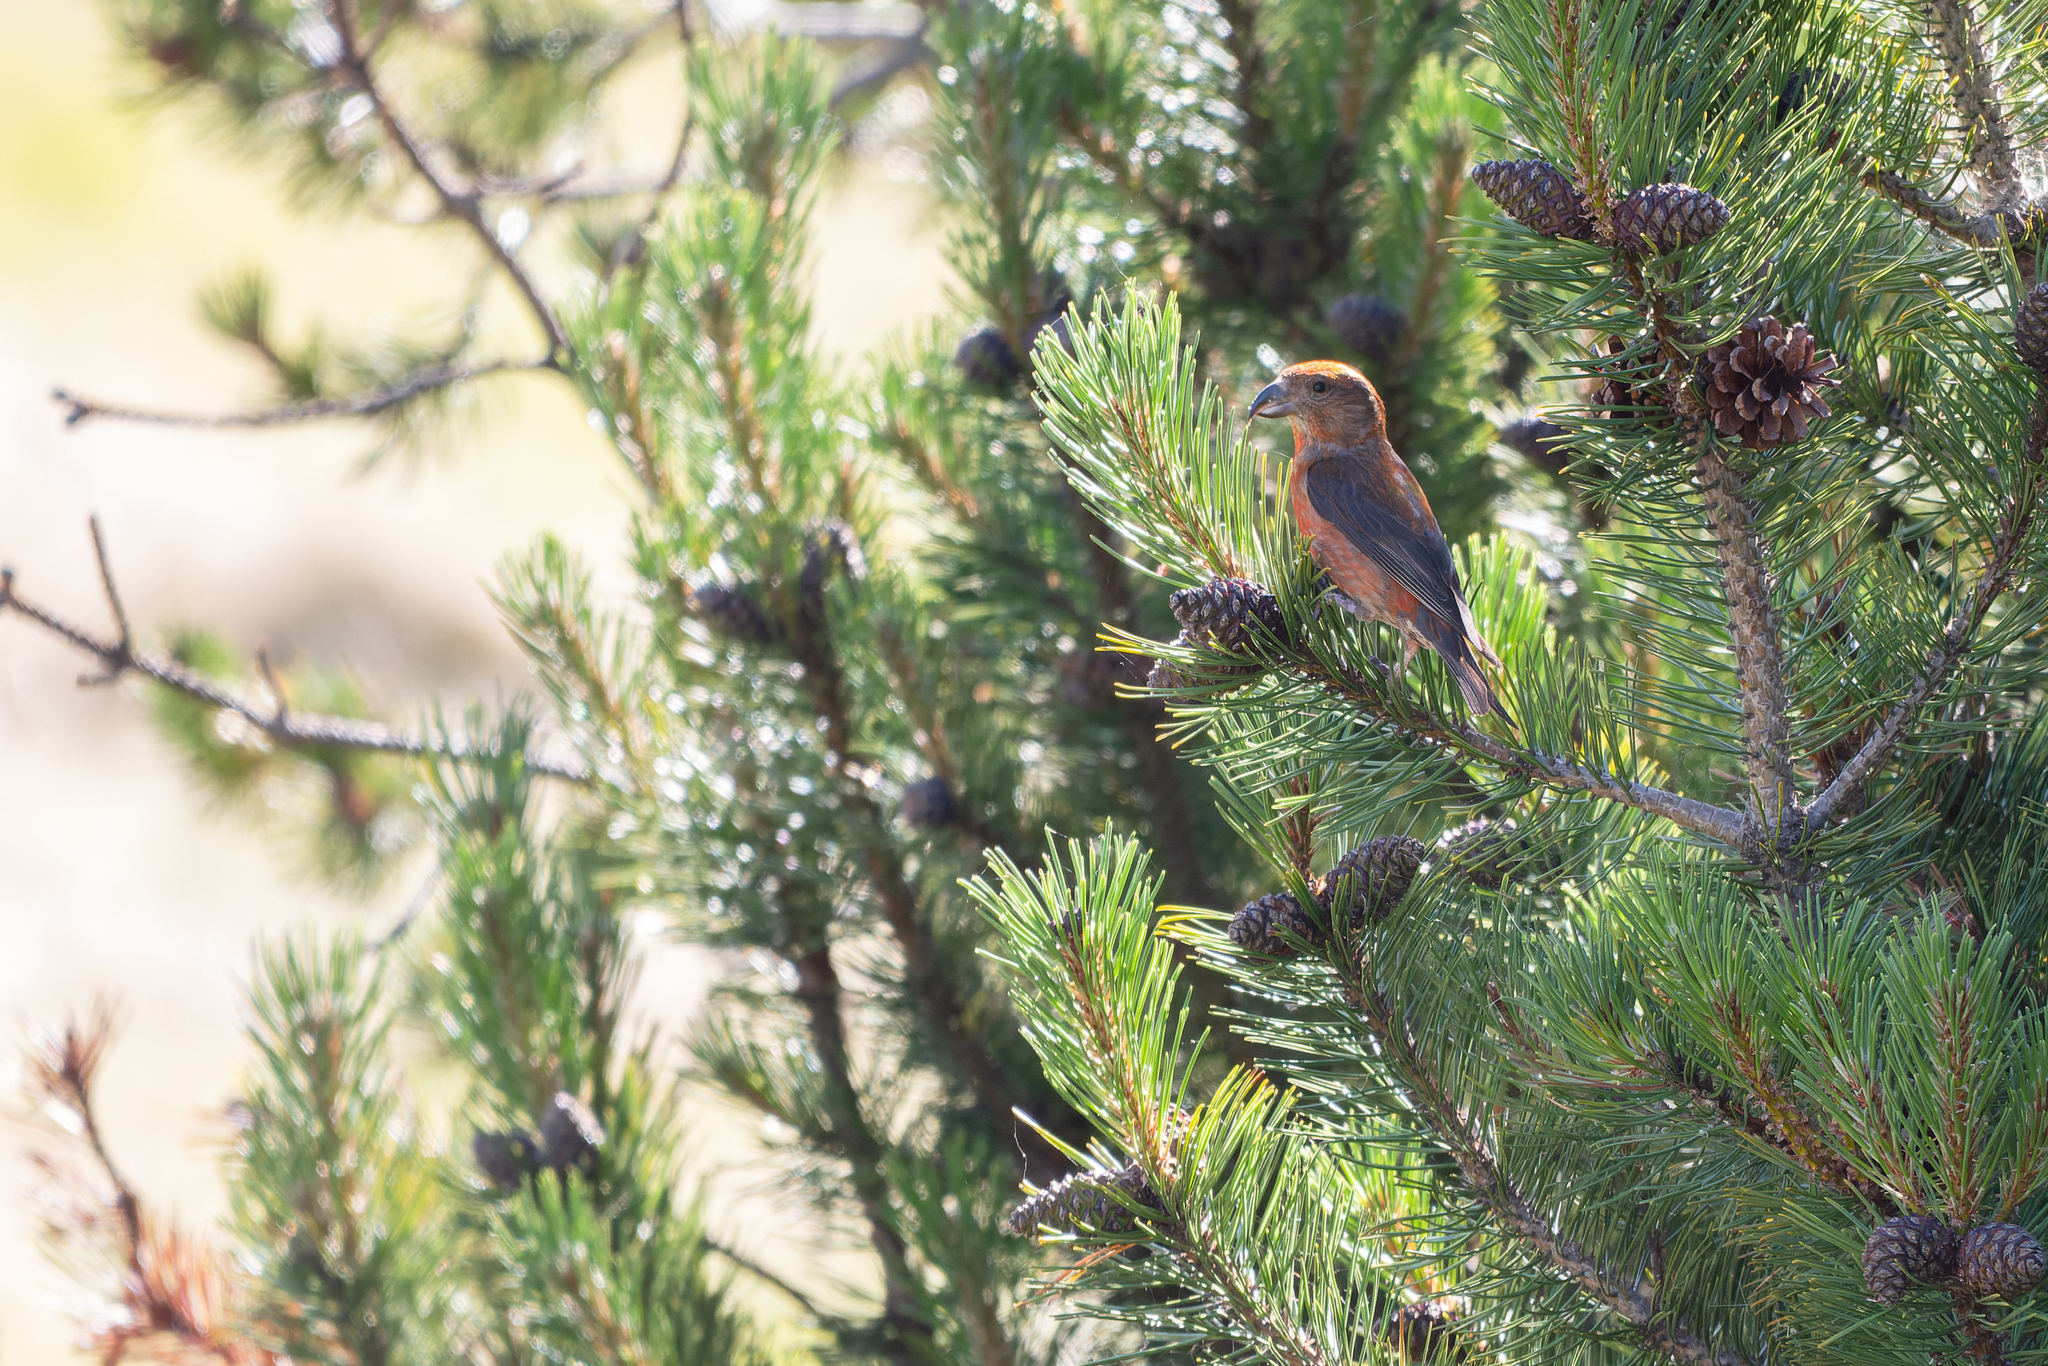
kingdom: Animalia
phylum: Chordata
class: Aves
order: Passeriformes
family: Fringillidae
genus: Loxia
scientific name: Loxia curvirostra
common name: Red crossbill
